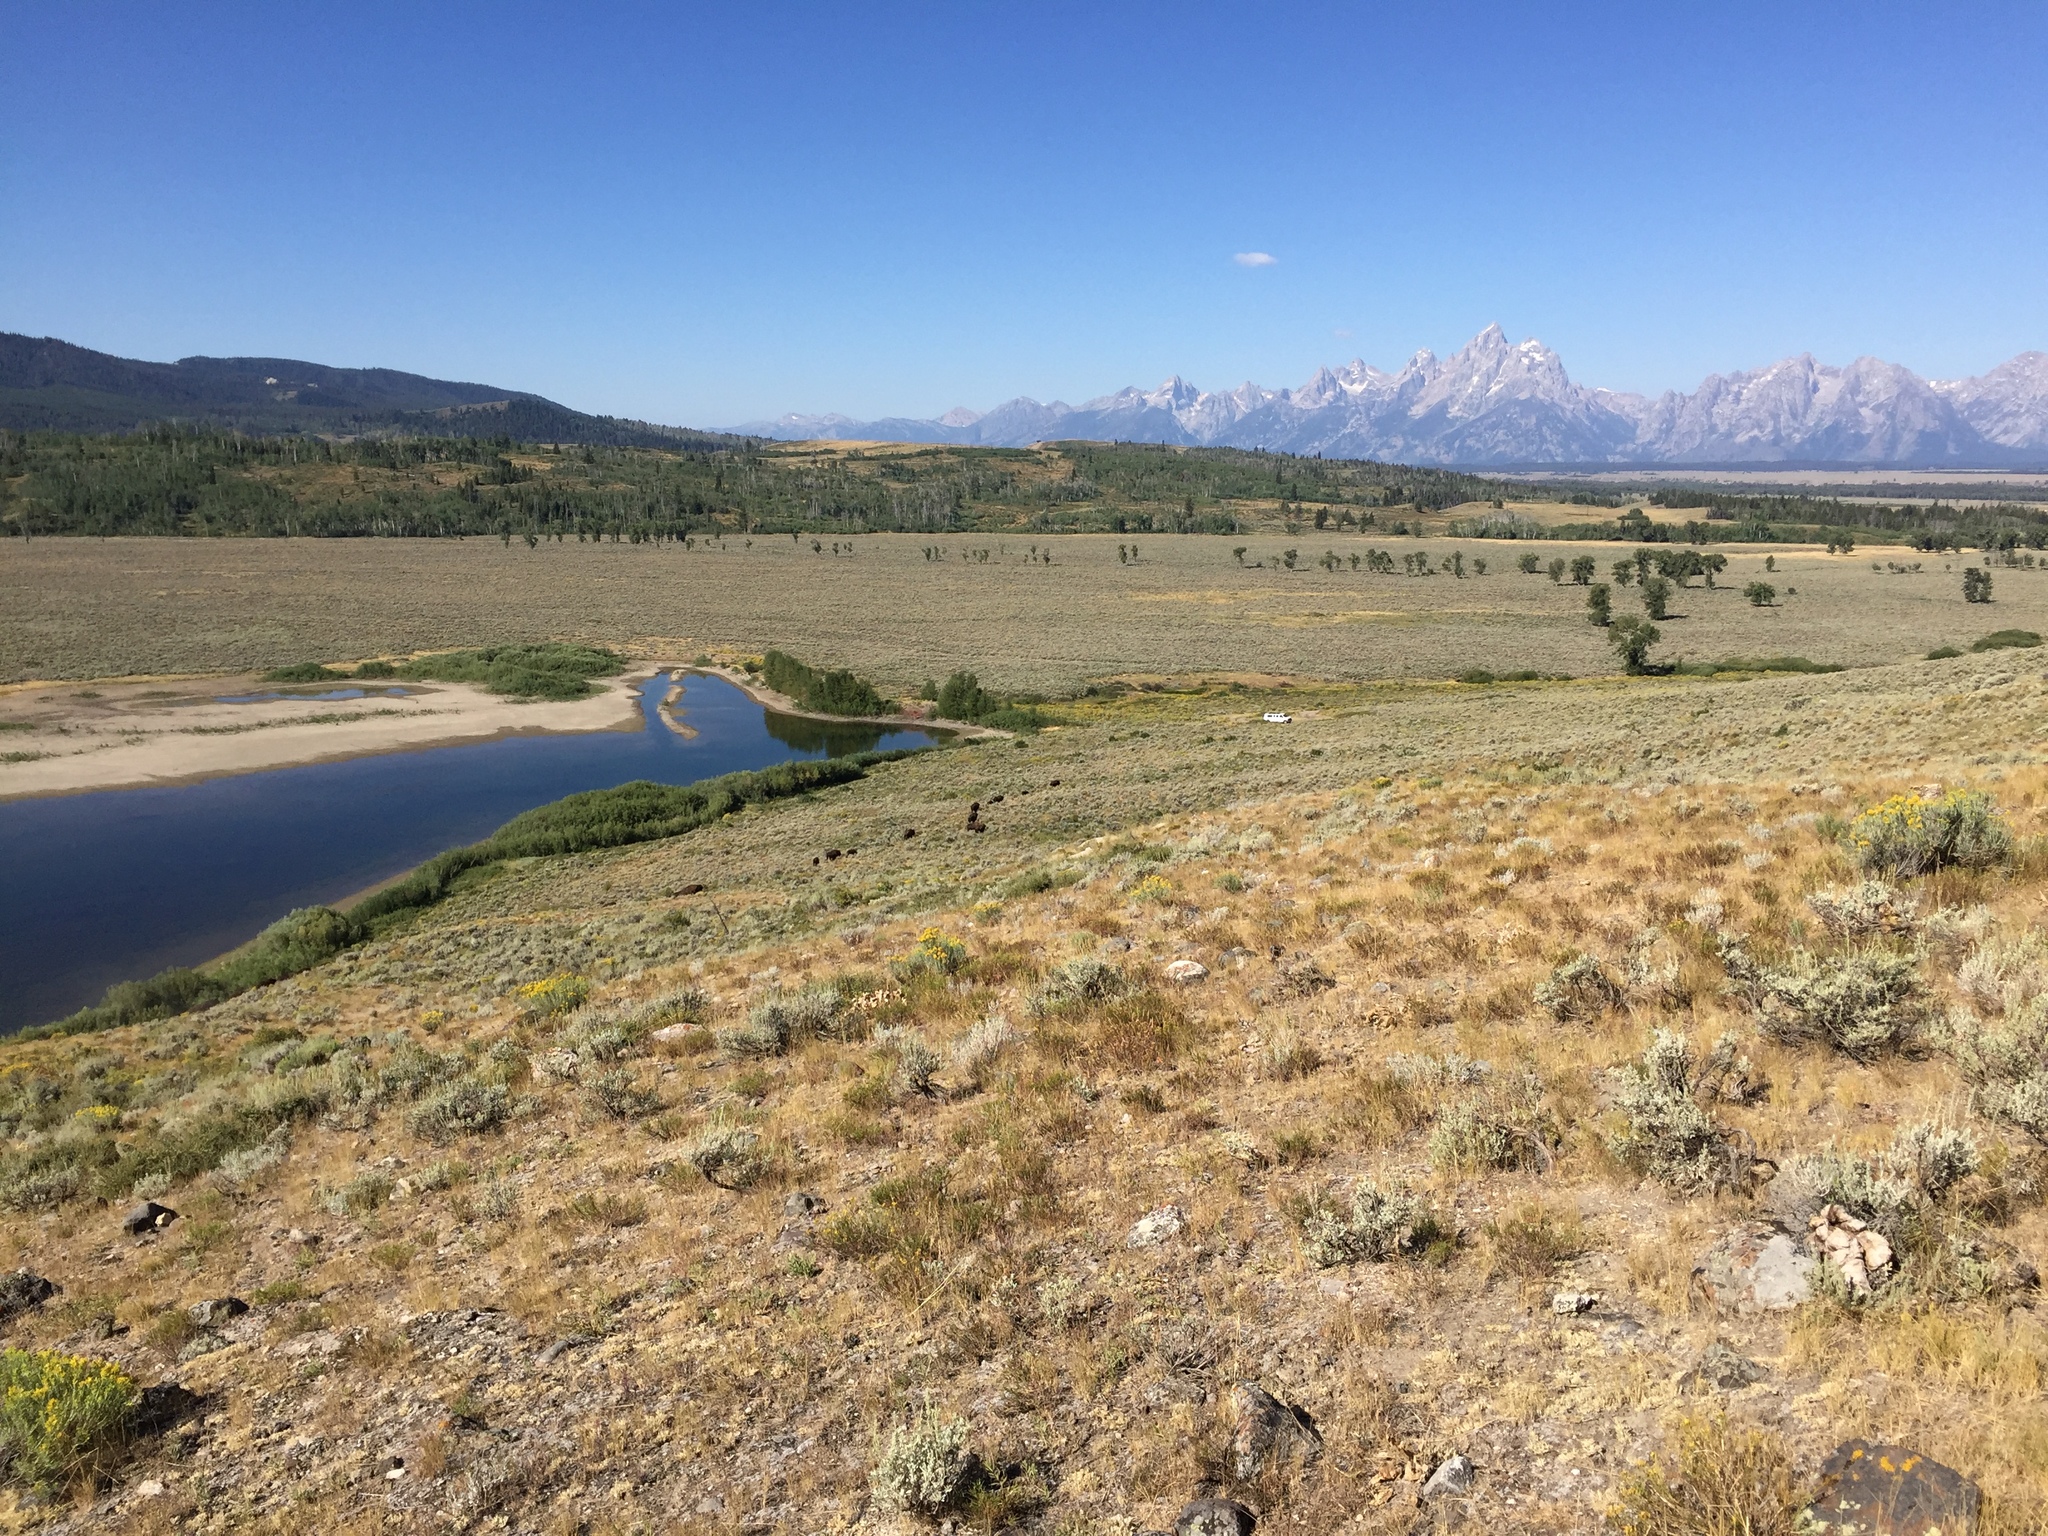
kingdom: Animalia
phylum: Chordata
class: Mammalia
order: Artiodactyla
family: Bovidae
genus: Bison
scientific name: Bison bison
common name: American bison
